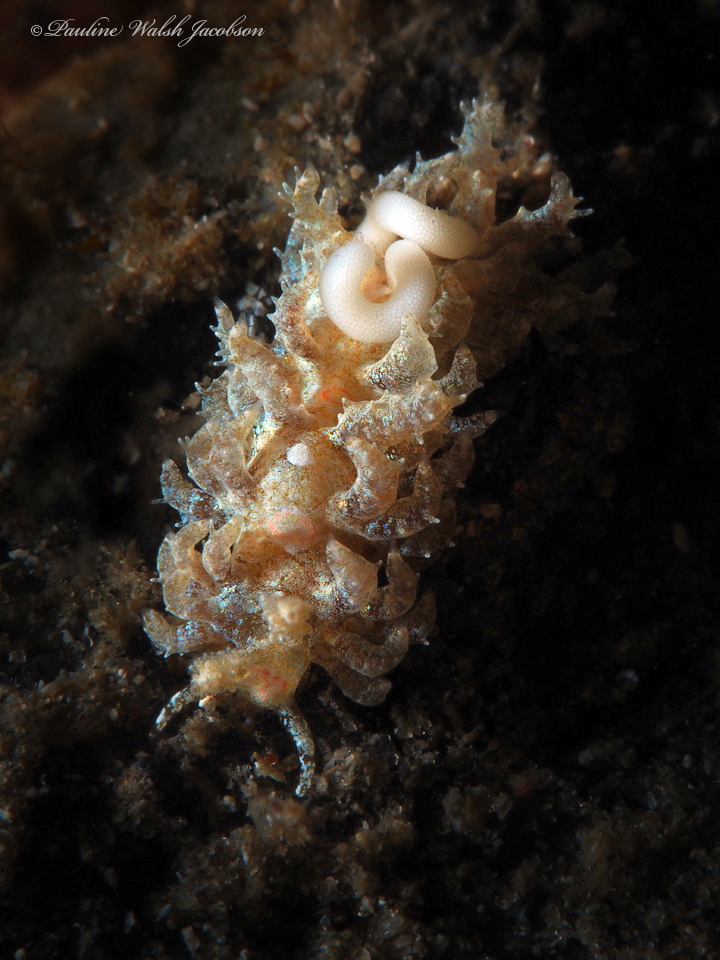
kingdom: Animalia
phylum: Mollusca
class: Gastropoda
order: Nudibranchia
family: Aeolidiidae
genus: Limenandra
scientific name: Limenandra nodosa
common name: Warty baeolidia
